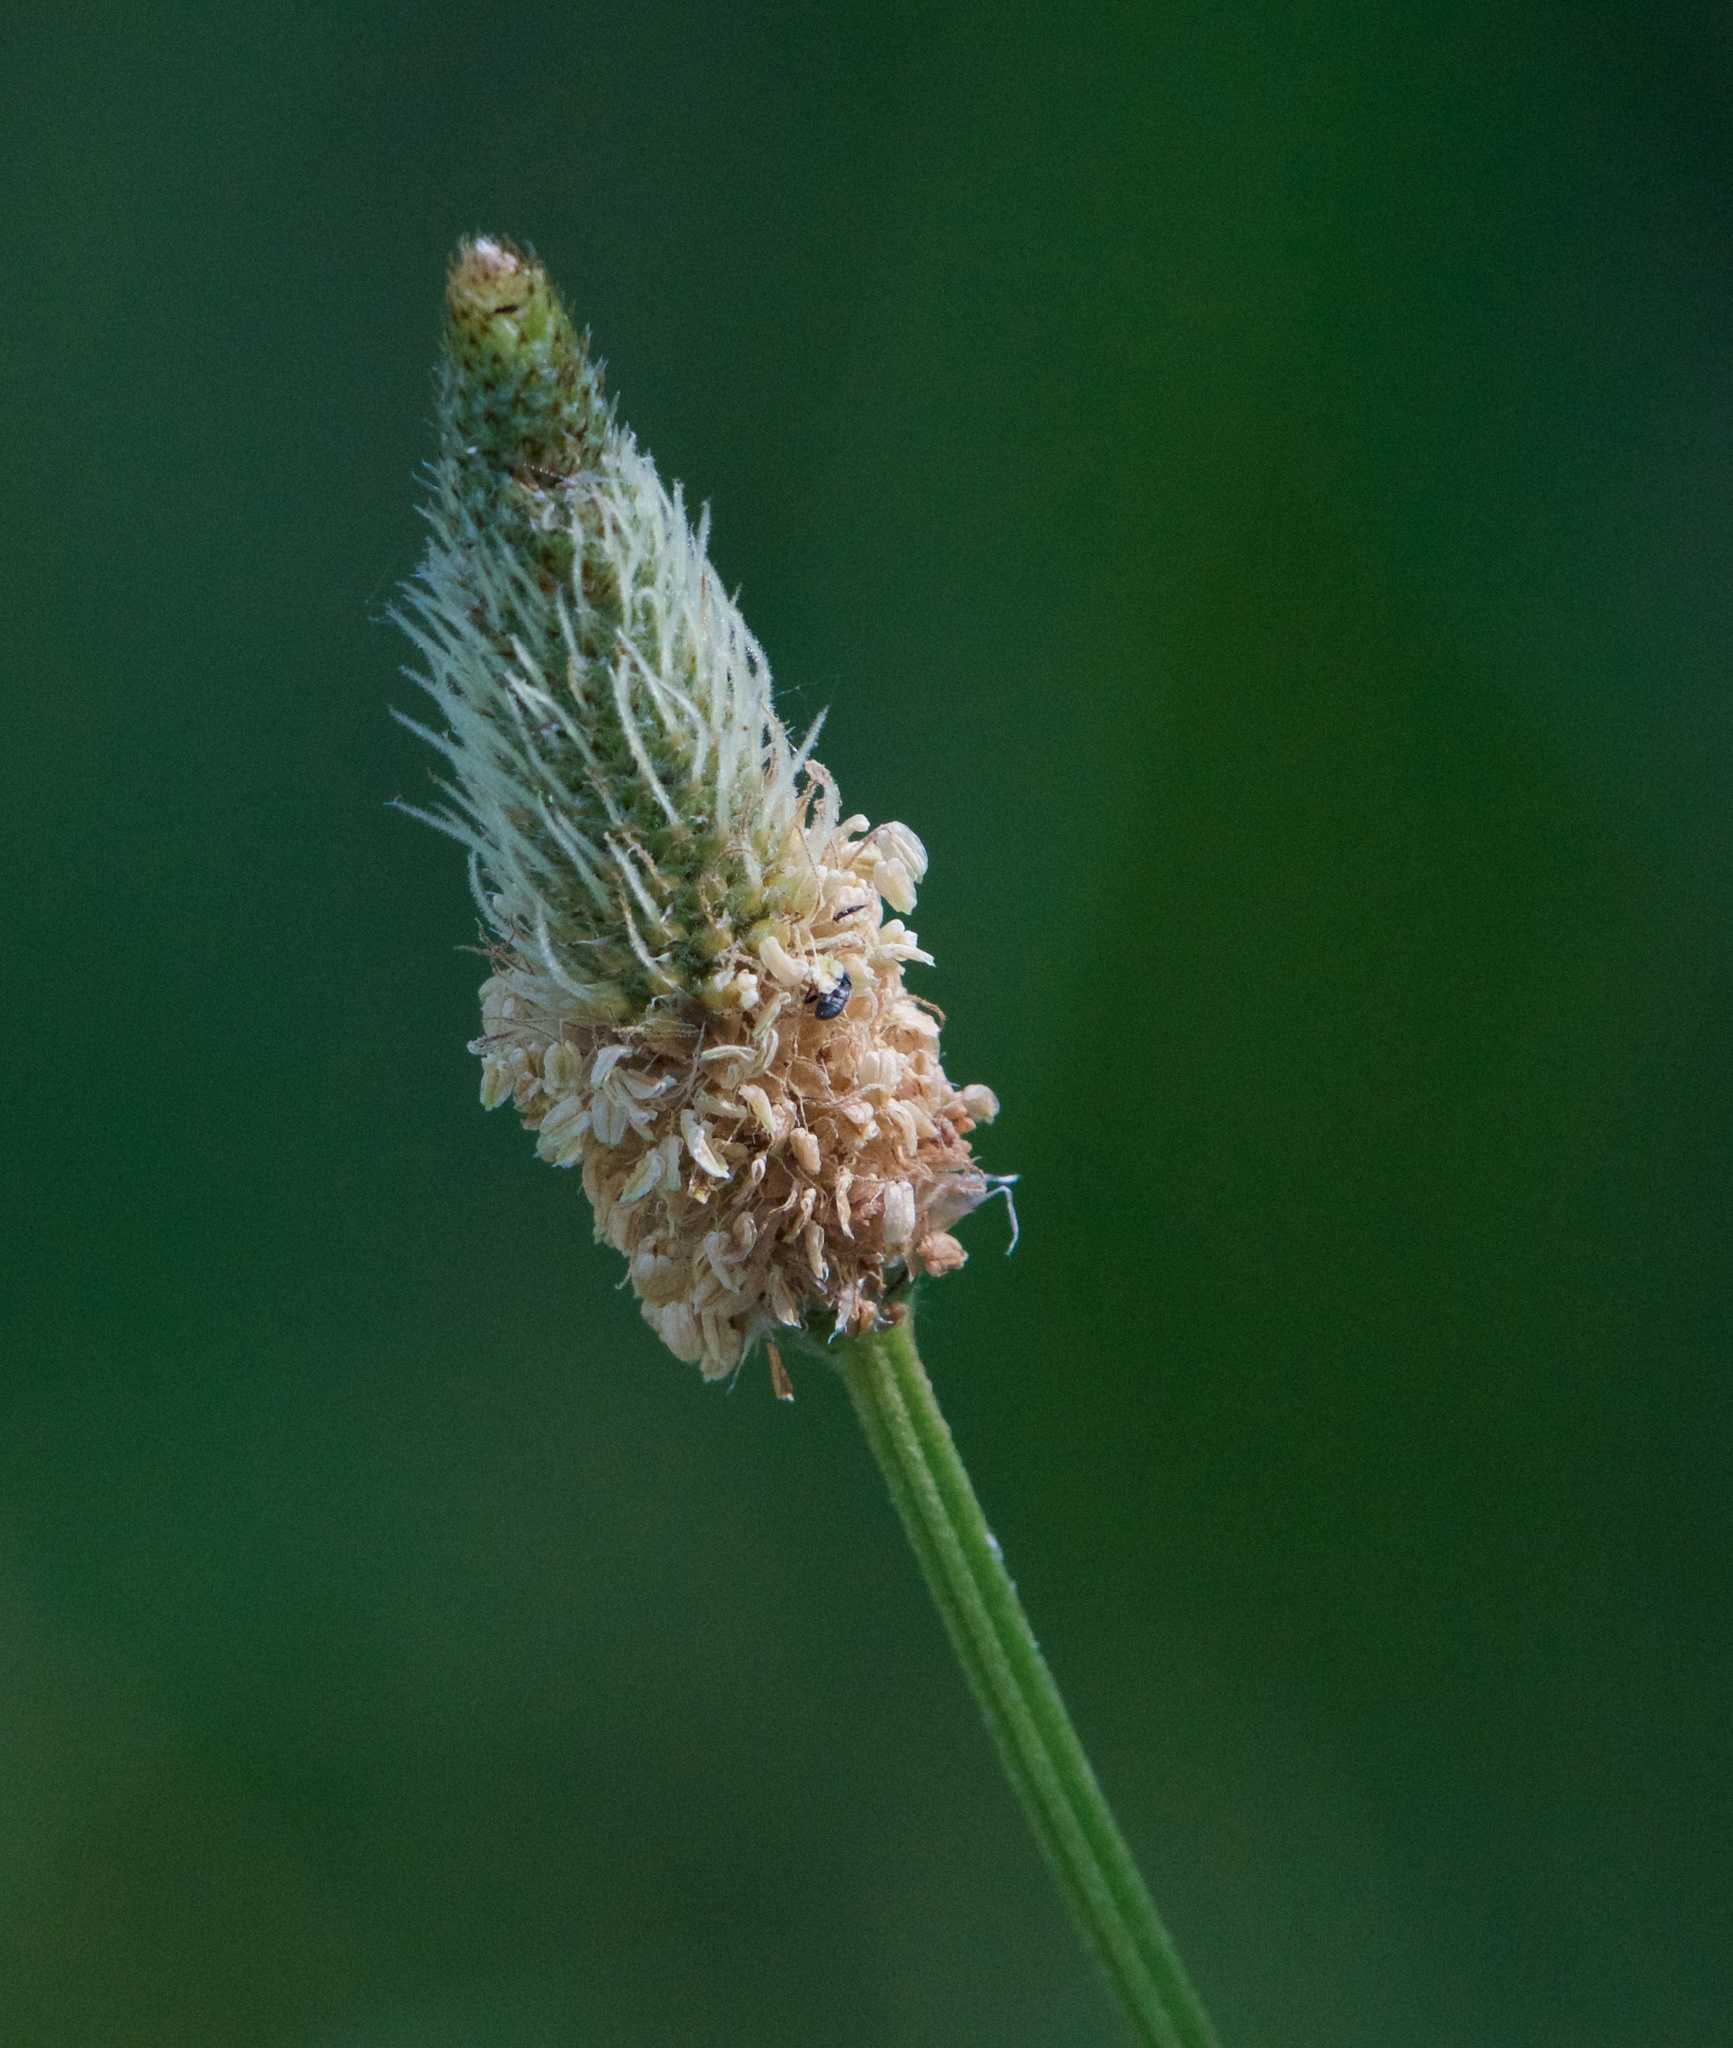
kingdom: Plantae
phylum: Tracheophyta
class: Magnoliopsida
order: Lamiales
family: Plantaginaceae
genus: Plantago
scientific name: Plantago lanceolata
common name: Ribwort plantain
